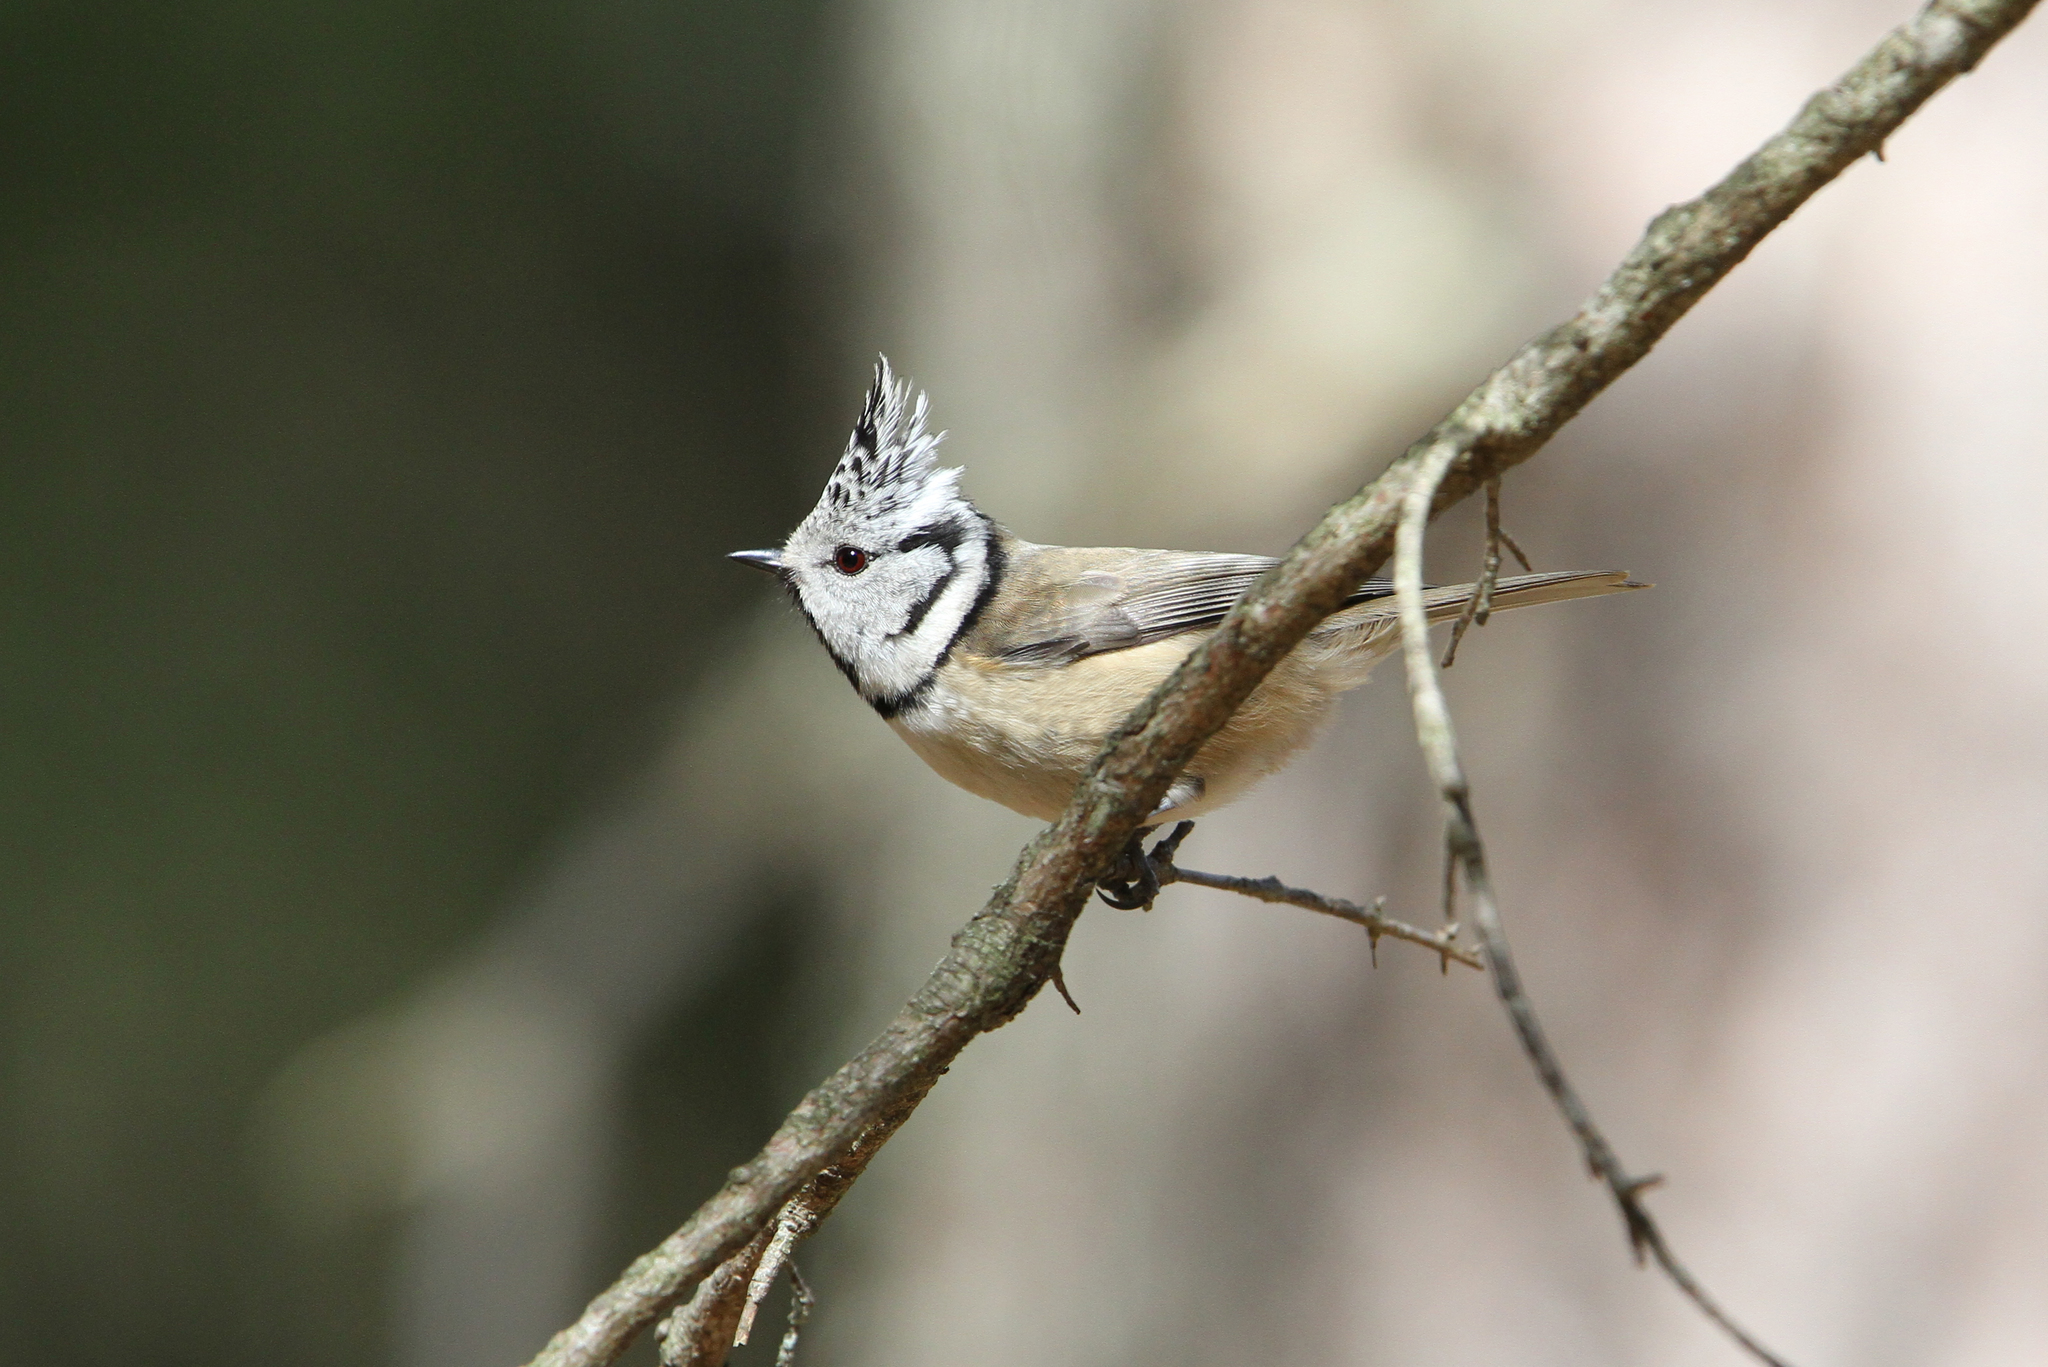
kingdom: Animalia
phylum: Chordata
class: Aves
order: Passeriformes
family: Paridae
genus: Lophophanes
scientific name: Lophophanes cristatus
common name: European crested tit
